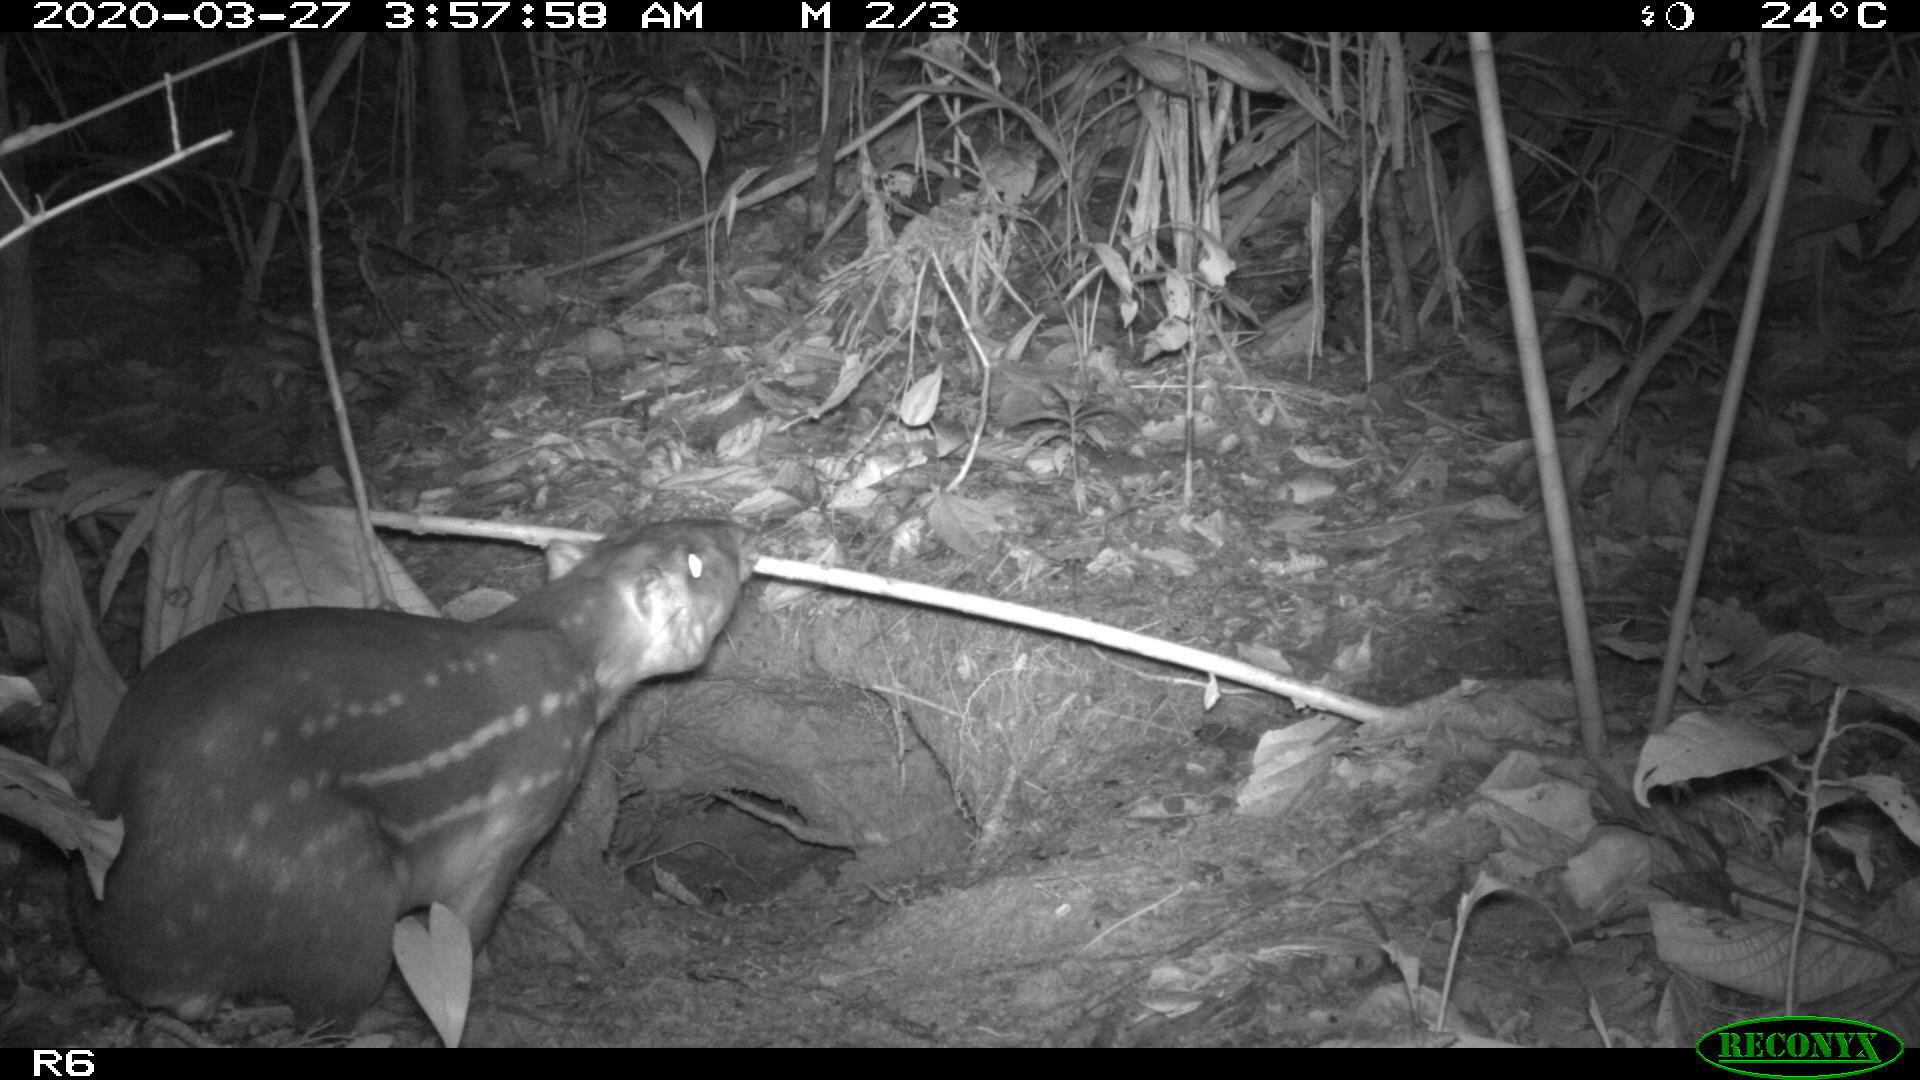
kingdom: Animalia
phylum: Chordata
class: Mammalia
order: Rodentia
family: Cuniculidae
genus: Cuniculus
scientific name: Cuniculus paca
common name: Lowland paca
